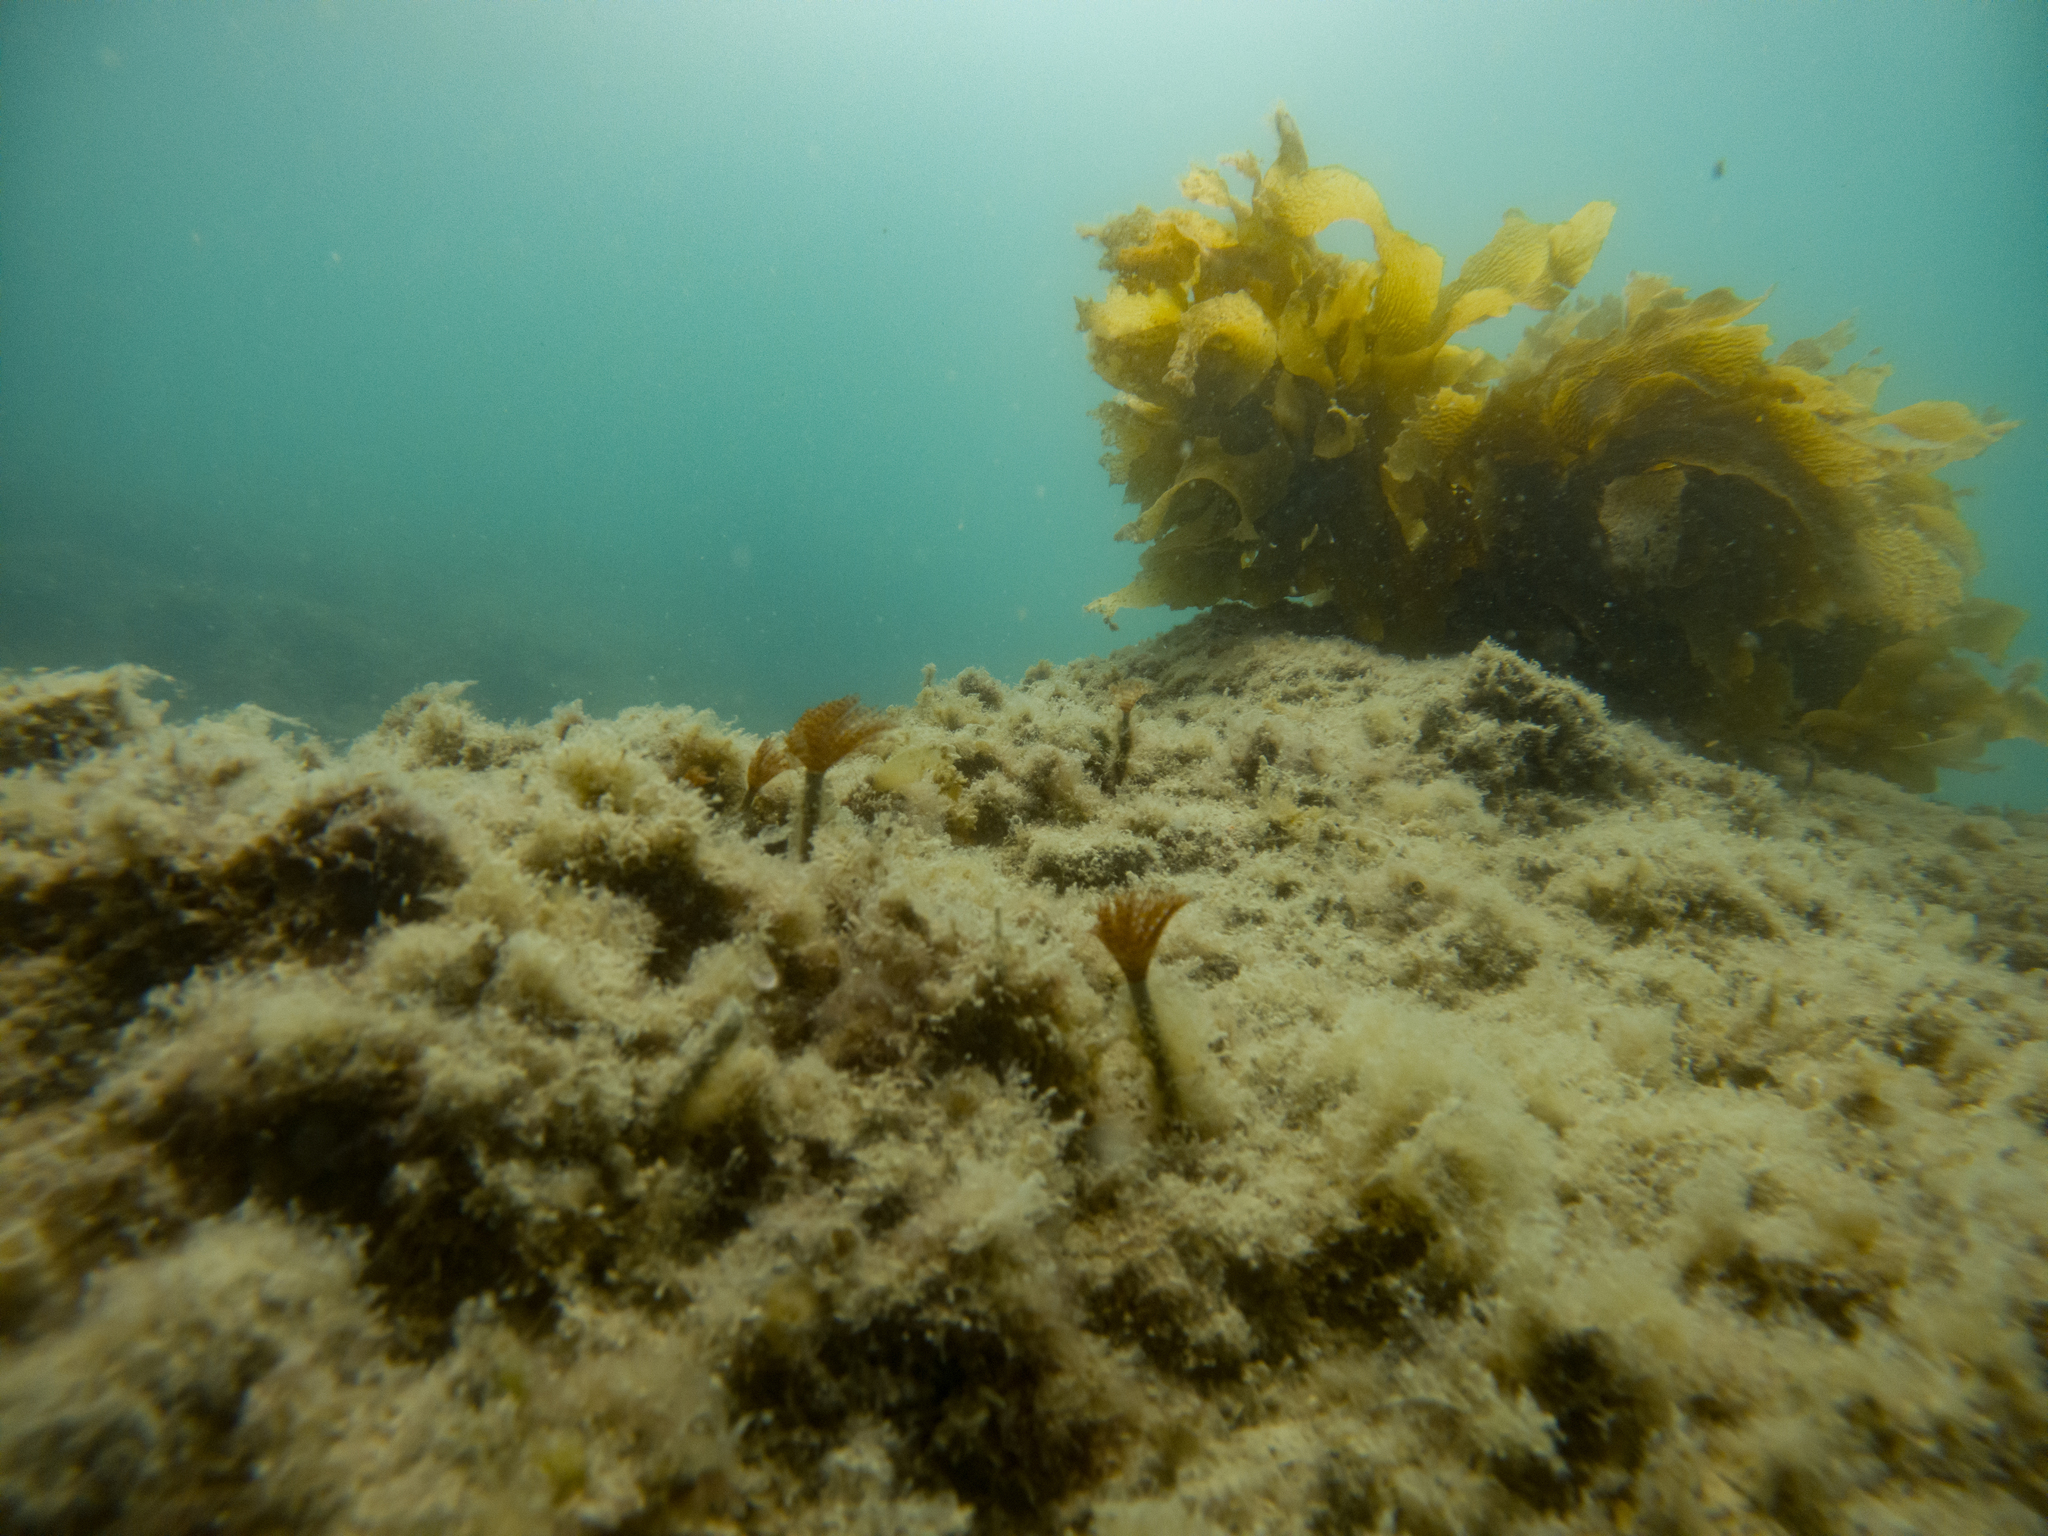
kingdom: Animalia
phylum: Annelida
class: Polychaeta
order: Sabellida
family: Sabellidae
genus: Sabella
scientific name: Sabella spallanzanii
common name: Feather duster worm
